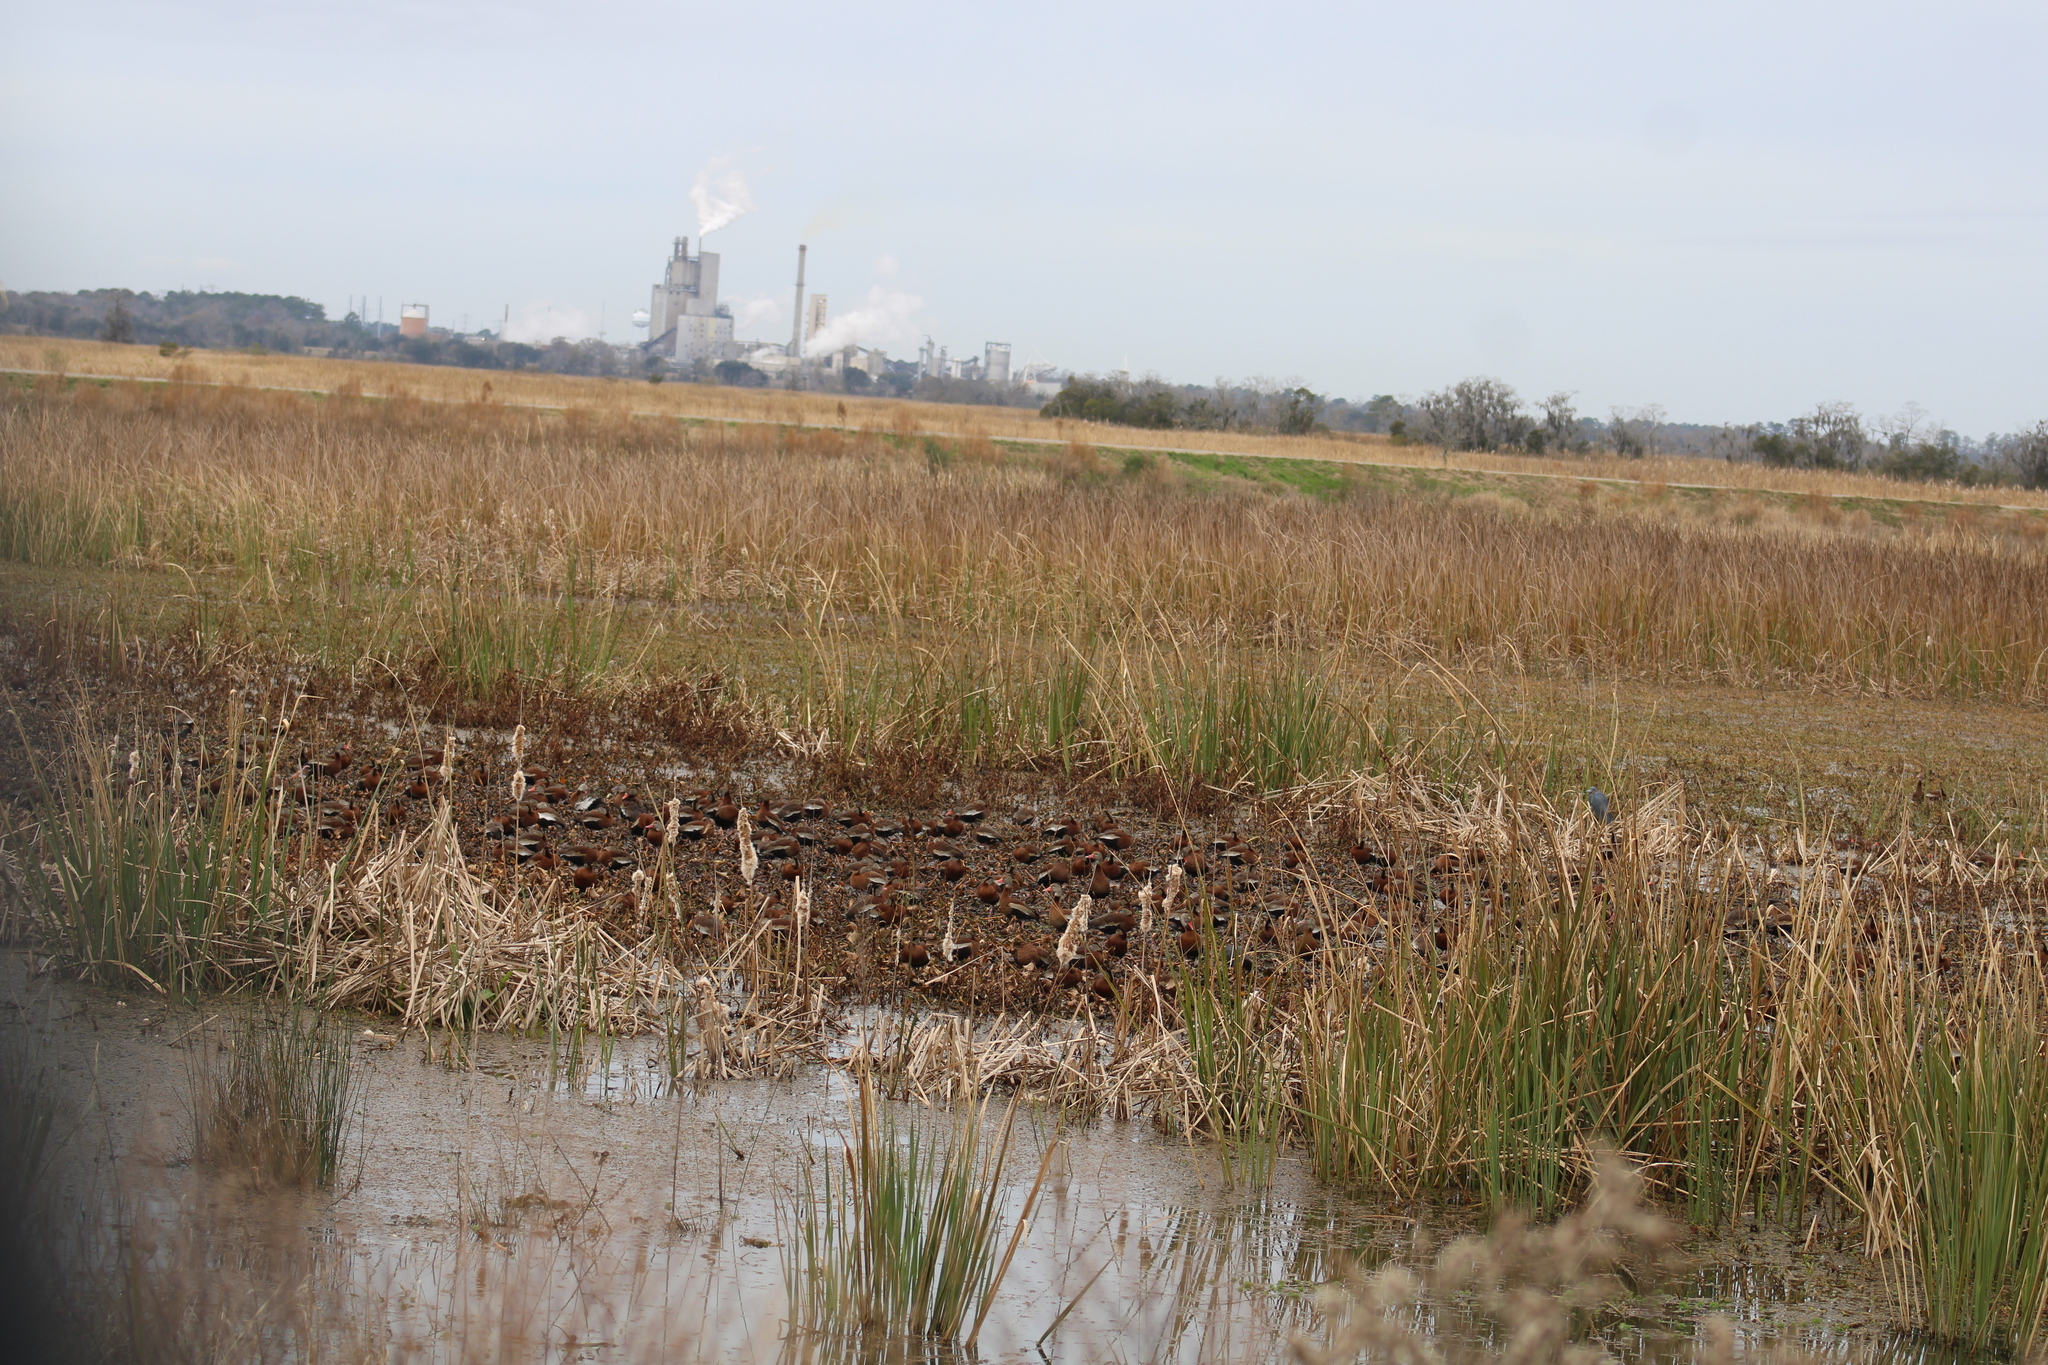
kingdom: Animalia
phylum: Chordata
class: Aves
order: Anseriformes
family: Anatidae
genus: Dendrocygna
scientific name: Dendrocygna autumnalis
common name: Black-bellied whistling duck
